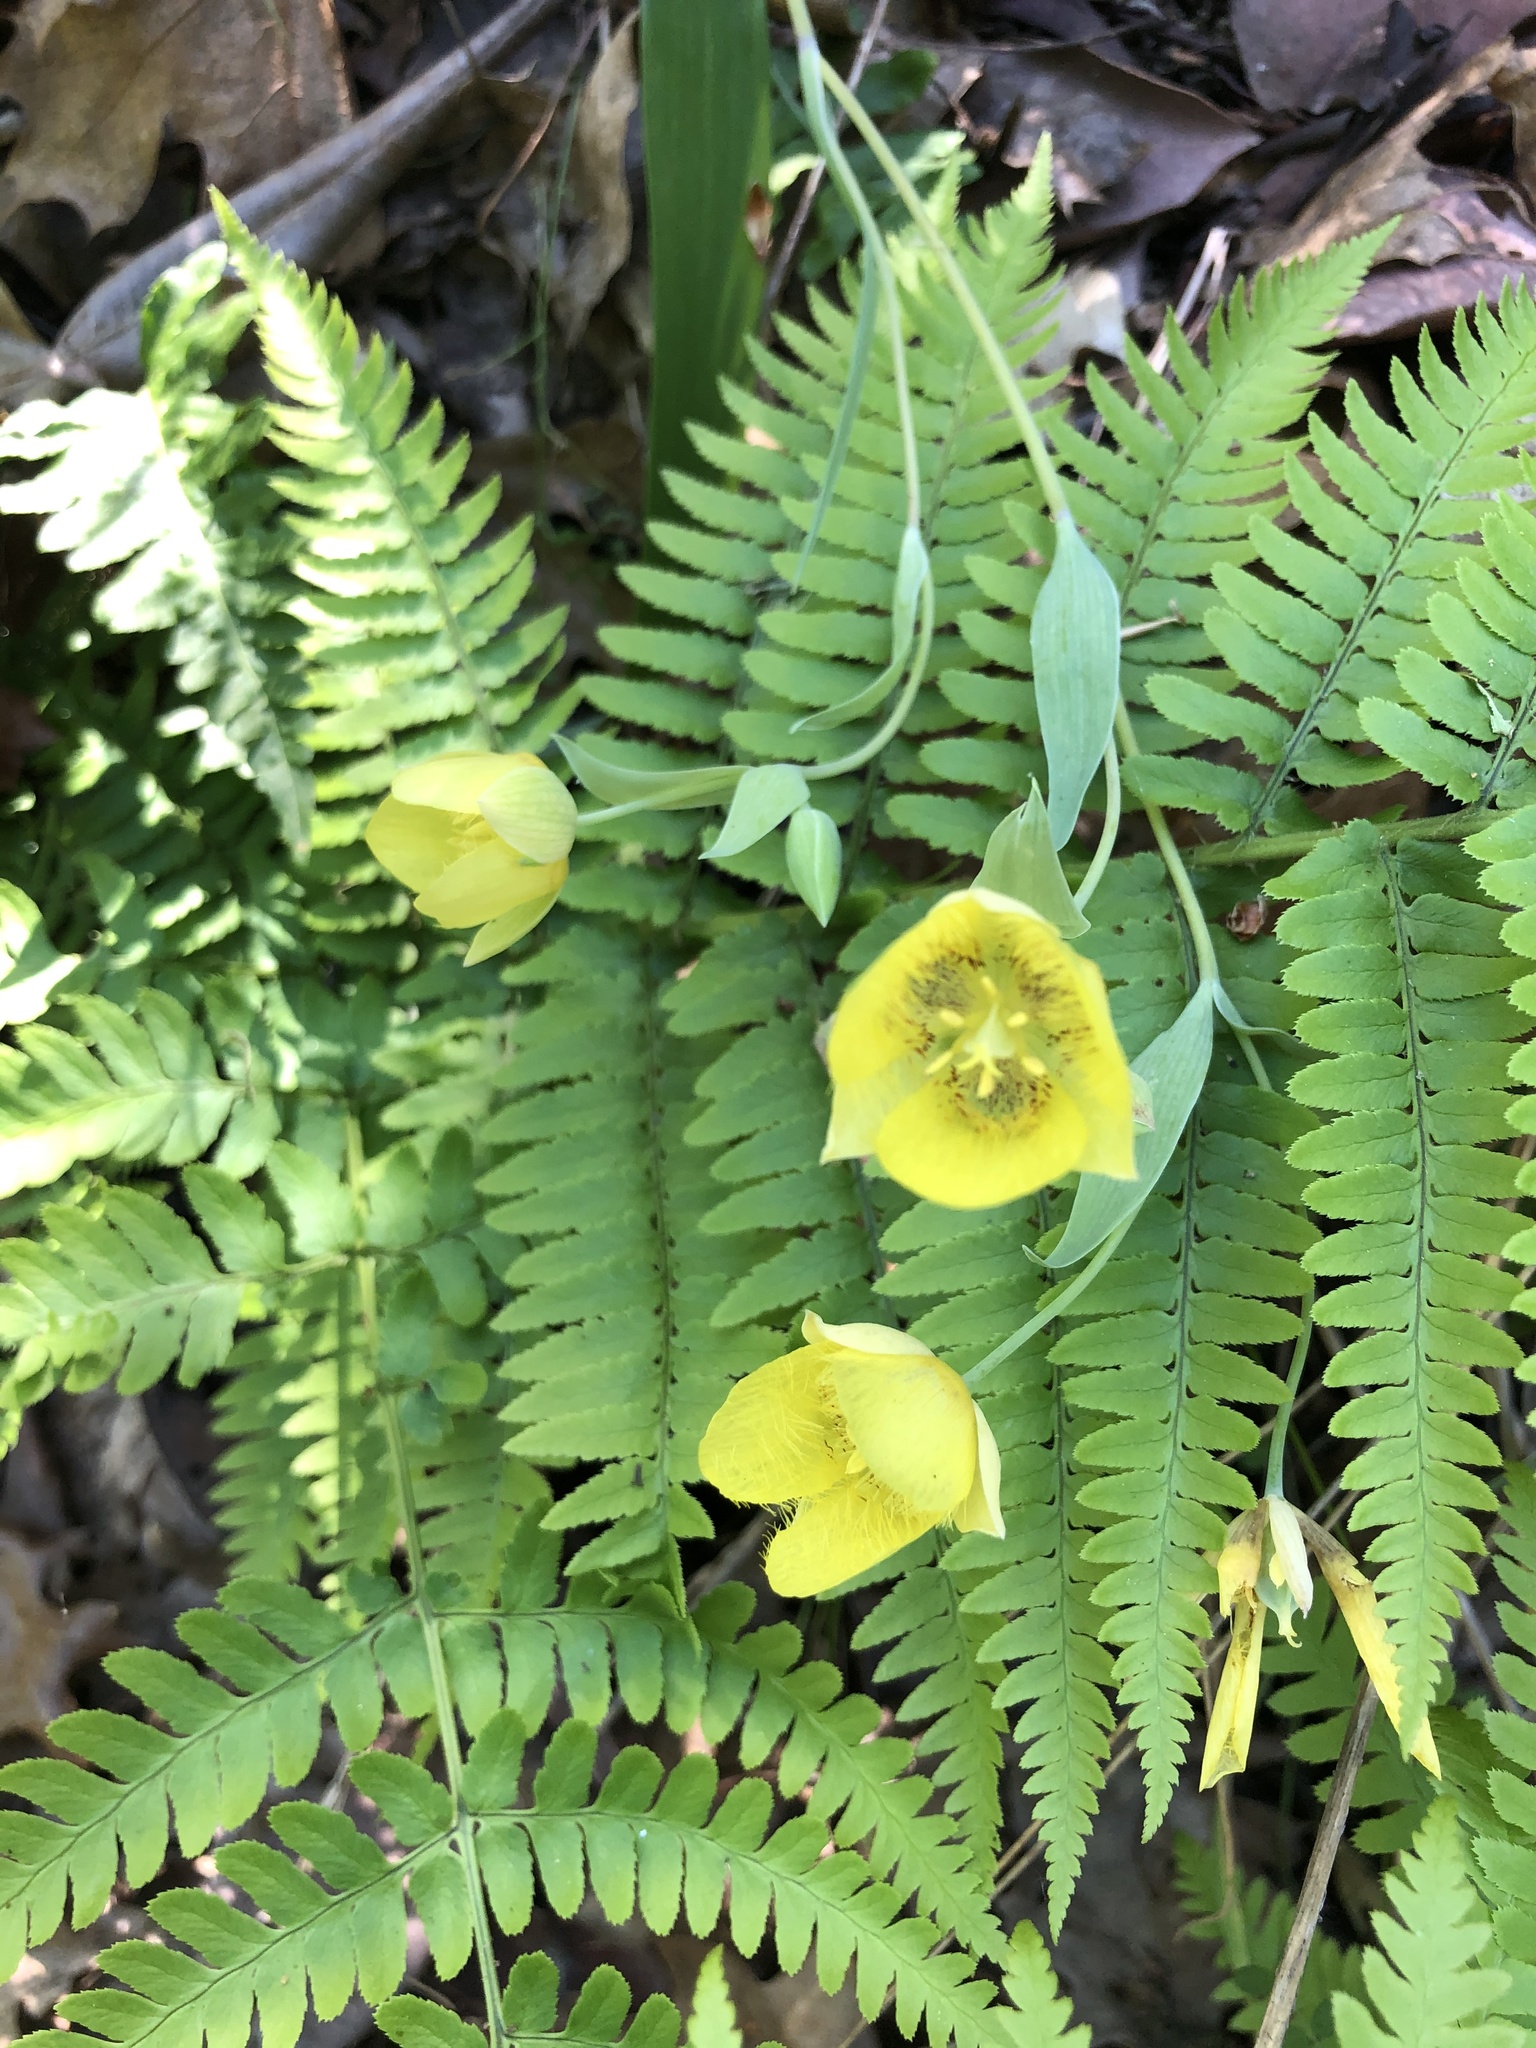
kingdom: Plantae
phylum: Tracheophyta
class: Liliopsida
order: Liliales
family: Liliaceae
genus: Calochortus
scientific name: Calochortus monophyllus
